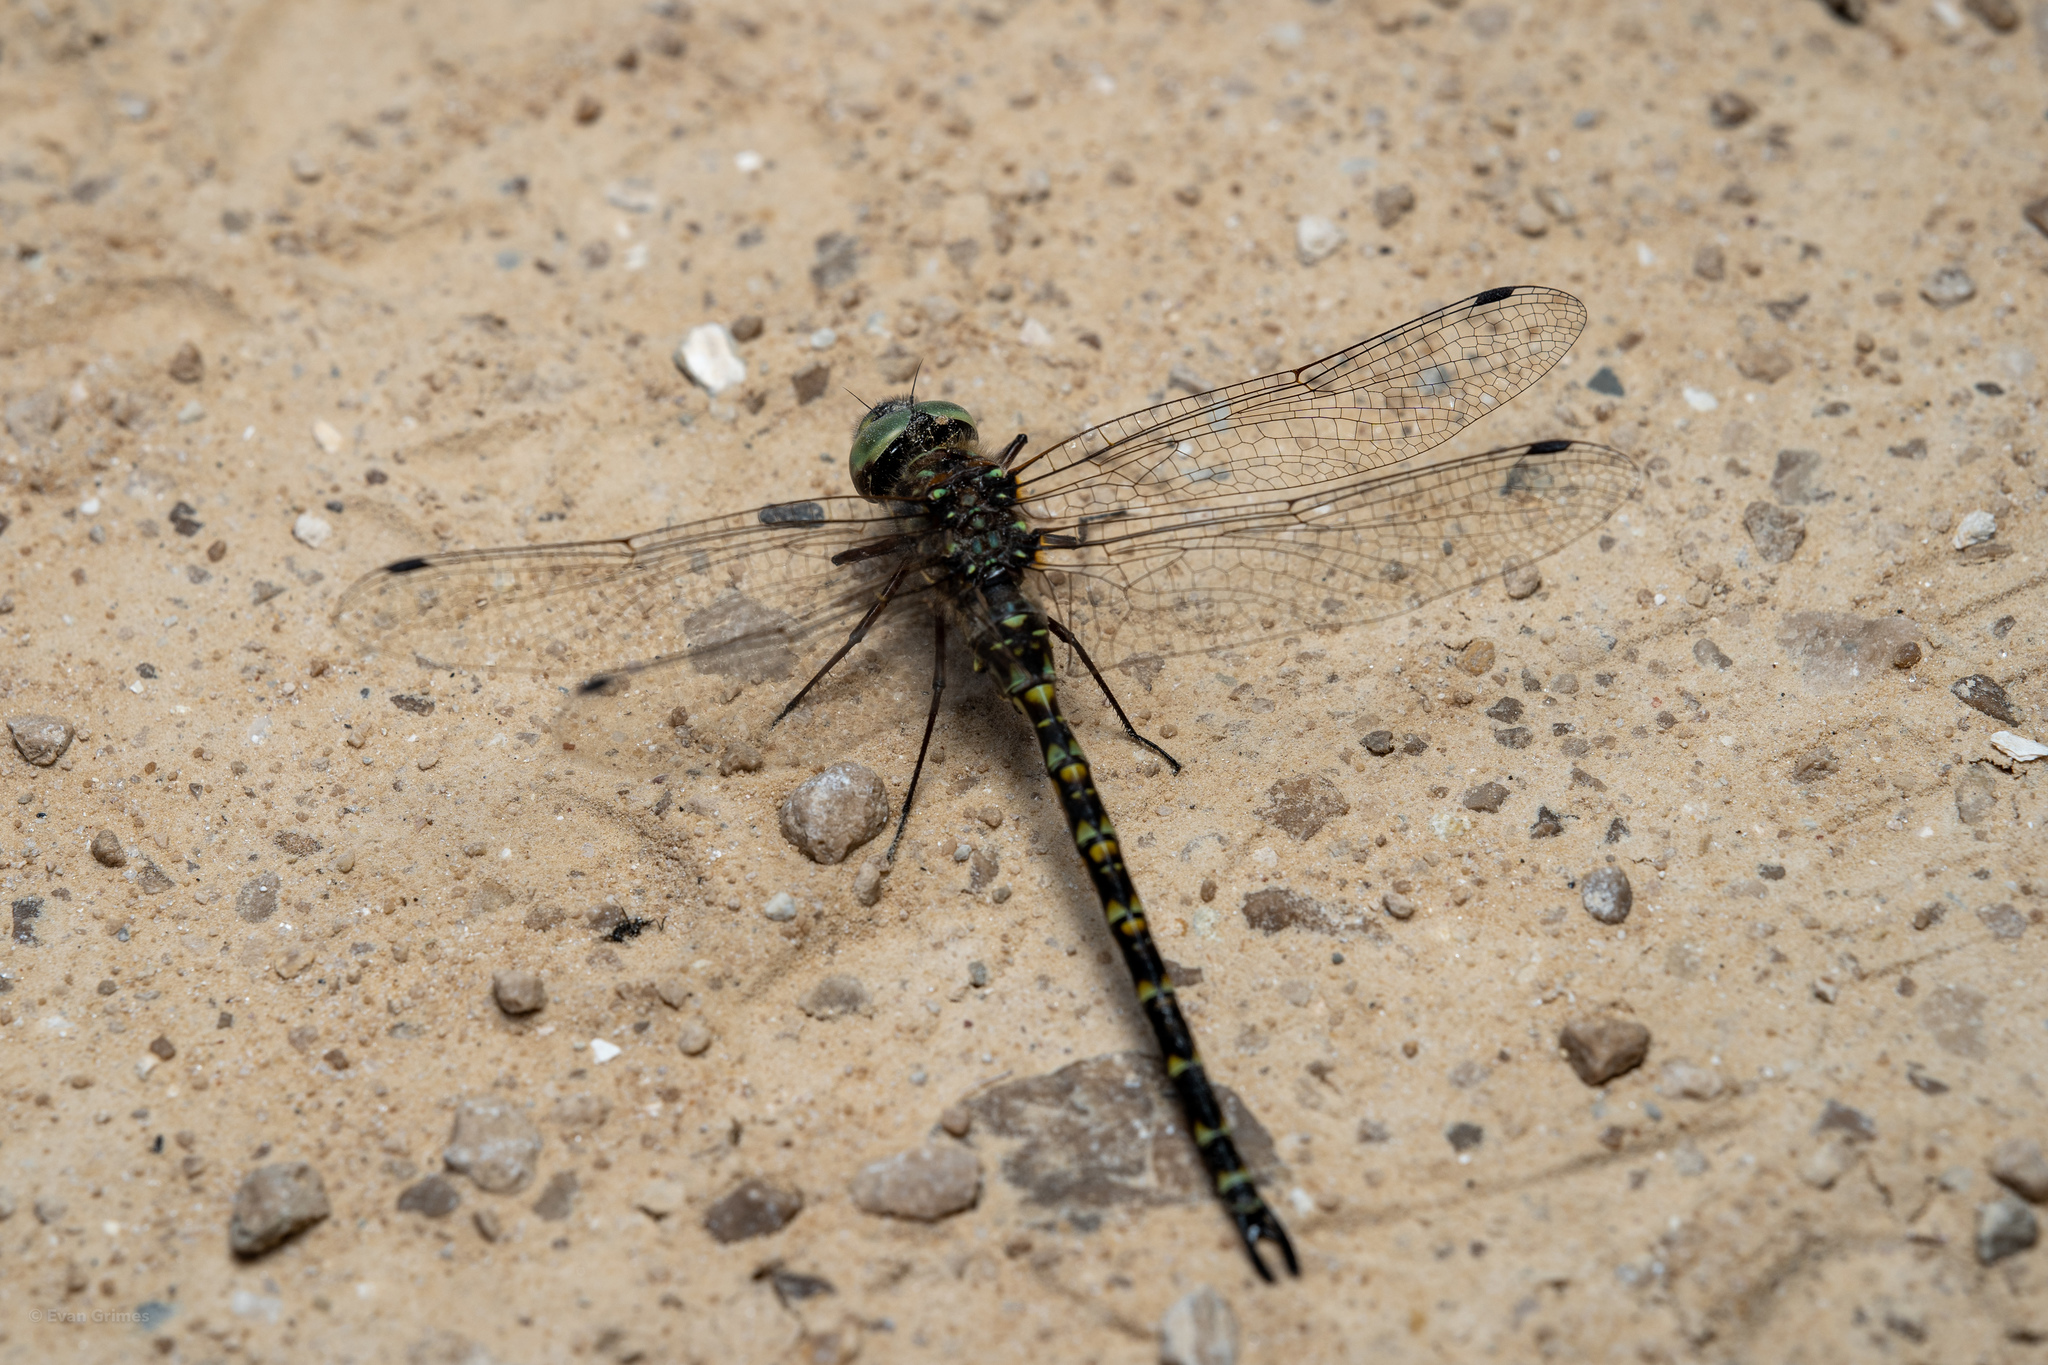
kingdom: Animalia
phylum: Arthropoda
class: Insecta
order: Odonata
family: Aeshnidae
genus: Gomphaeschna
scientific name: Gomphaeschna furcillata
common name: Harlequin darner
